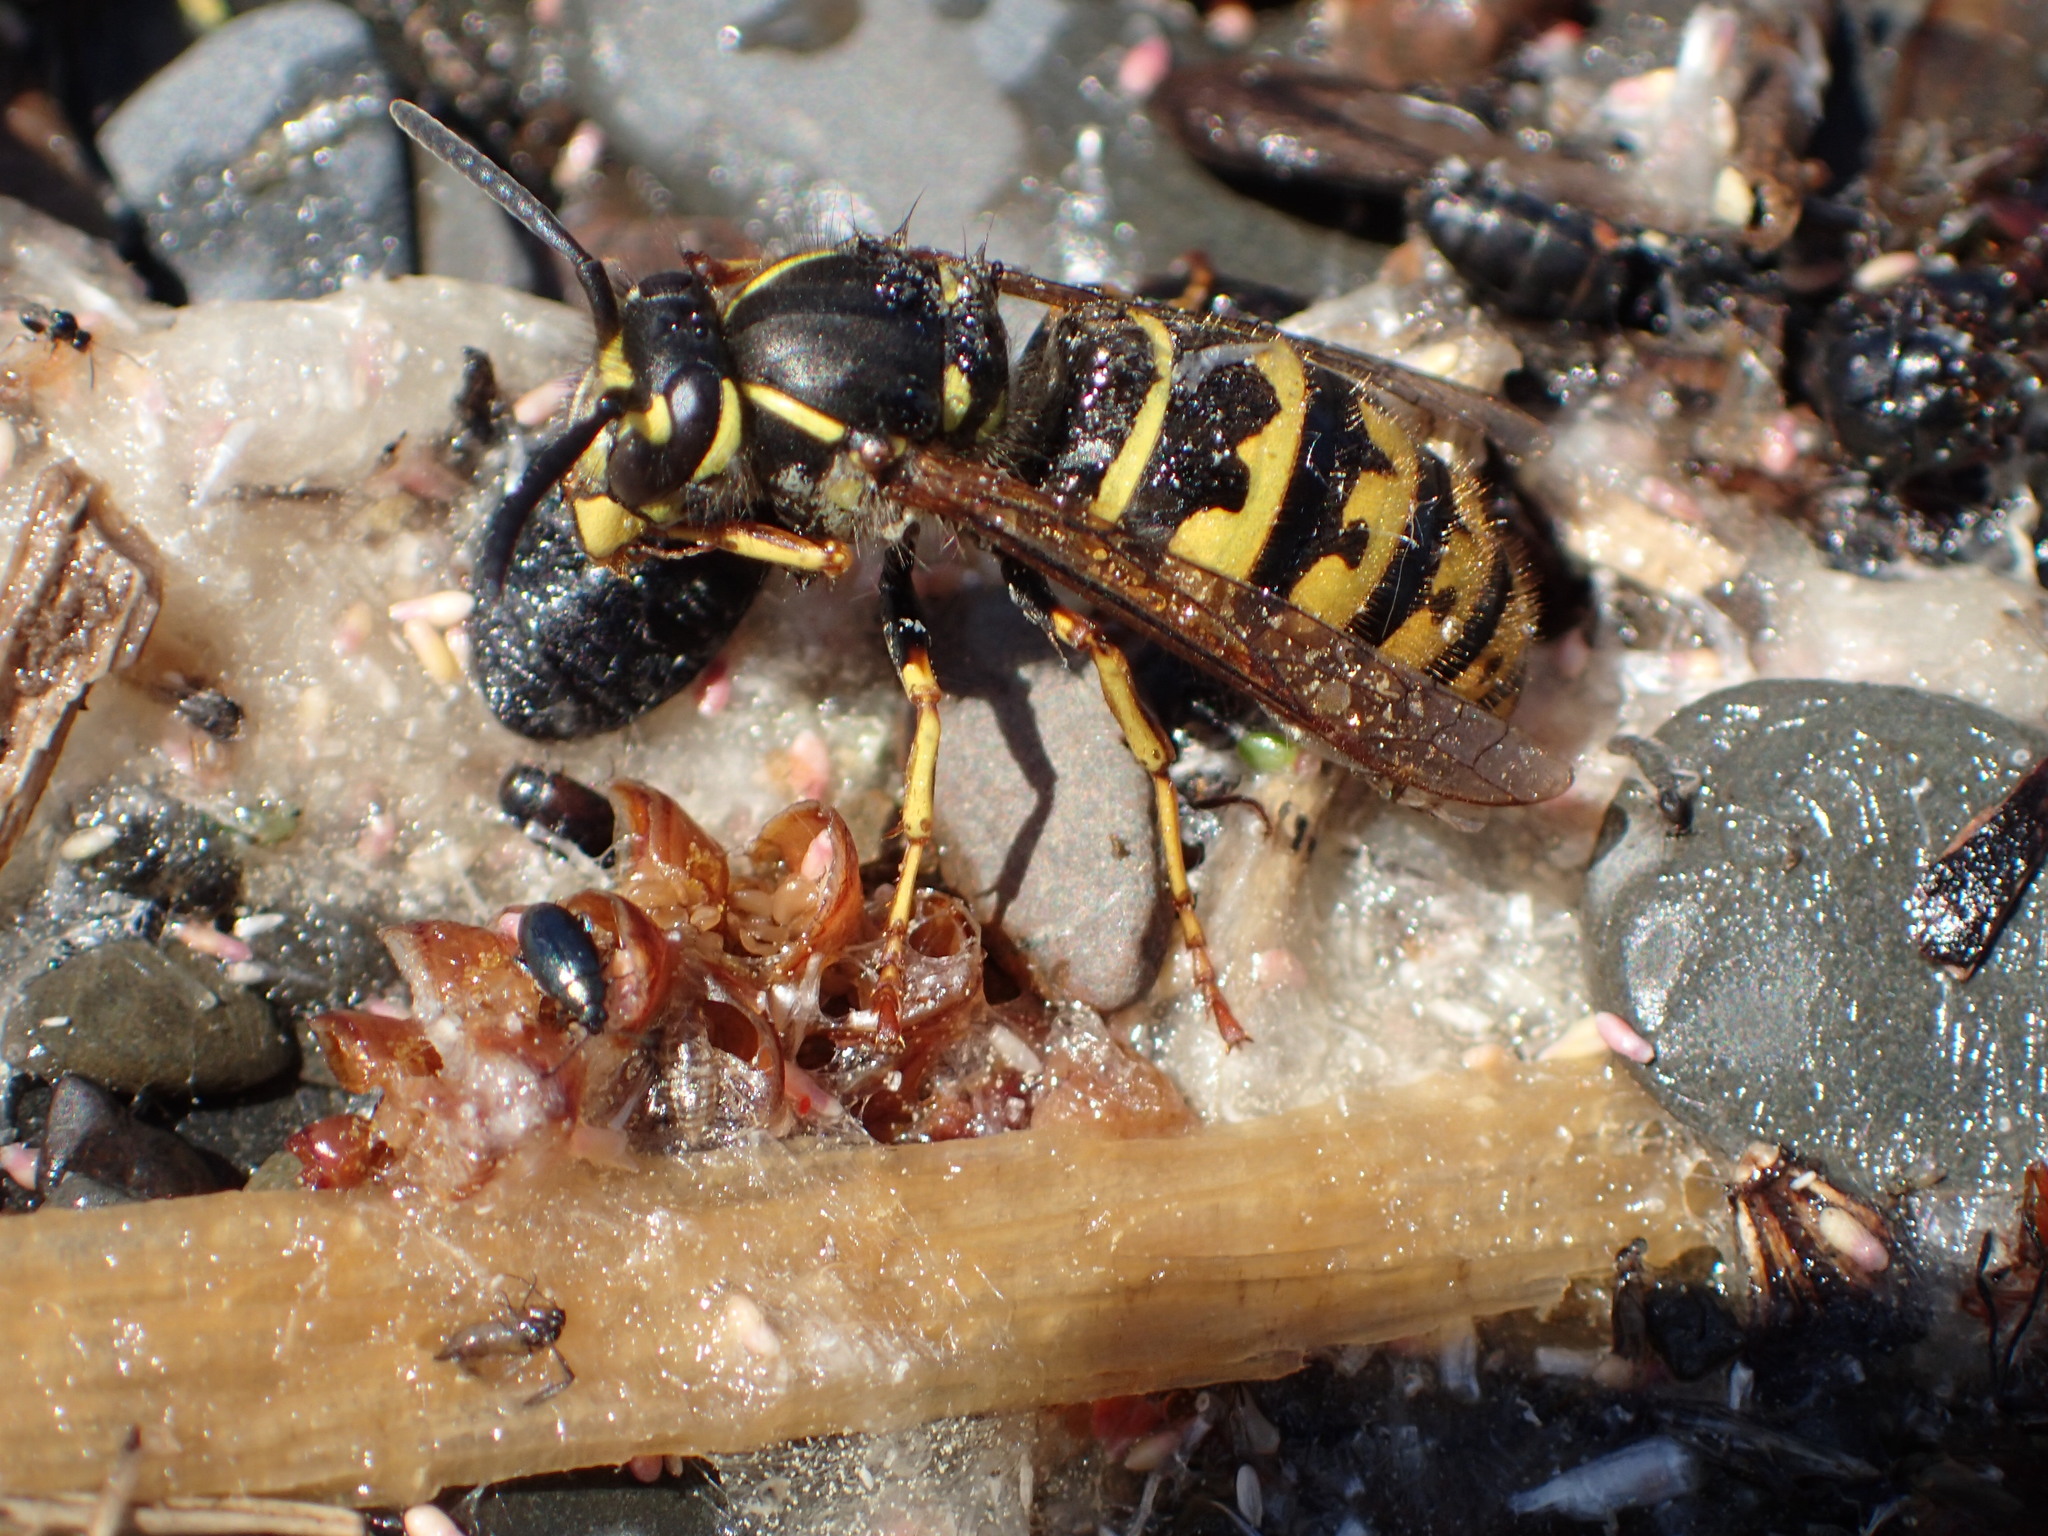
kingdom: Animalia
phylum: Arthropoda
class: Insecta
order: Hymenoptera
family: Vespidae
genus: Vespula
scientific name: Vespula alascensis
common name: Alaska yellowjacket
